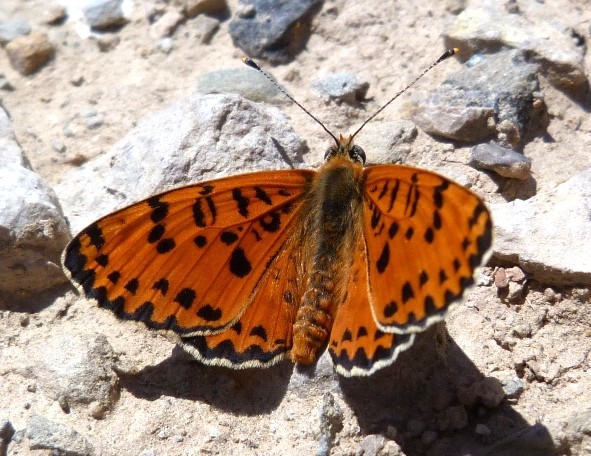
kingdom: Animalia
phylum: Arthropoda
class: Insecta
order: Lepidoptera
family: Nymphalidae
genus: Melitaea
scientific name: Melitaea didyma
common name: Spotted fritillary
